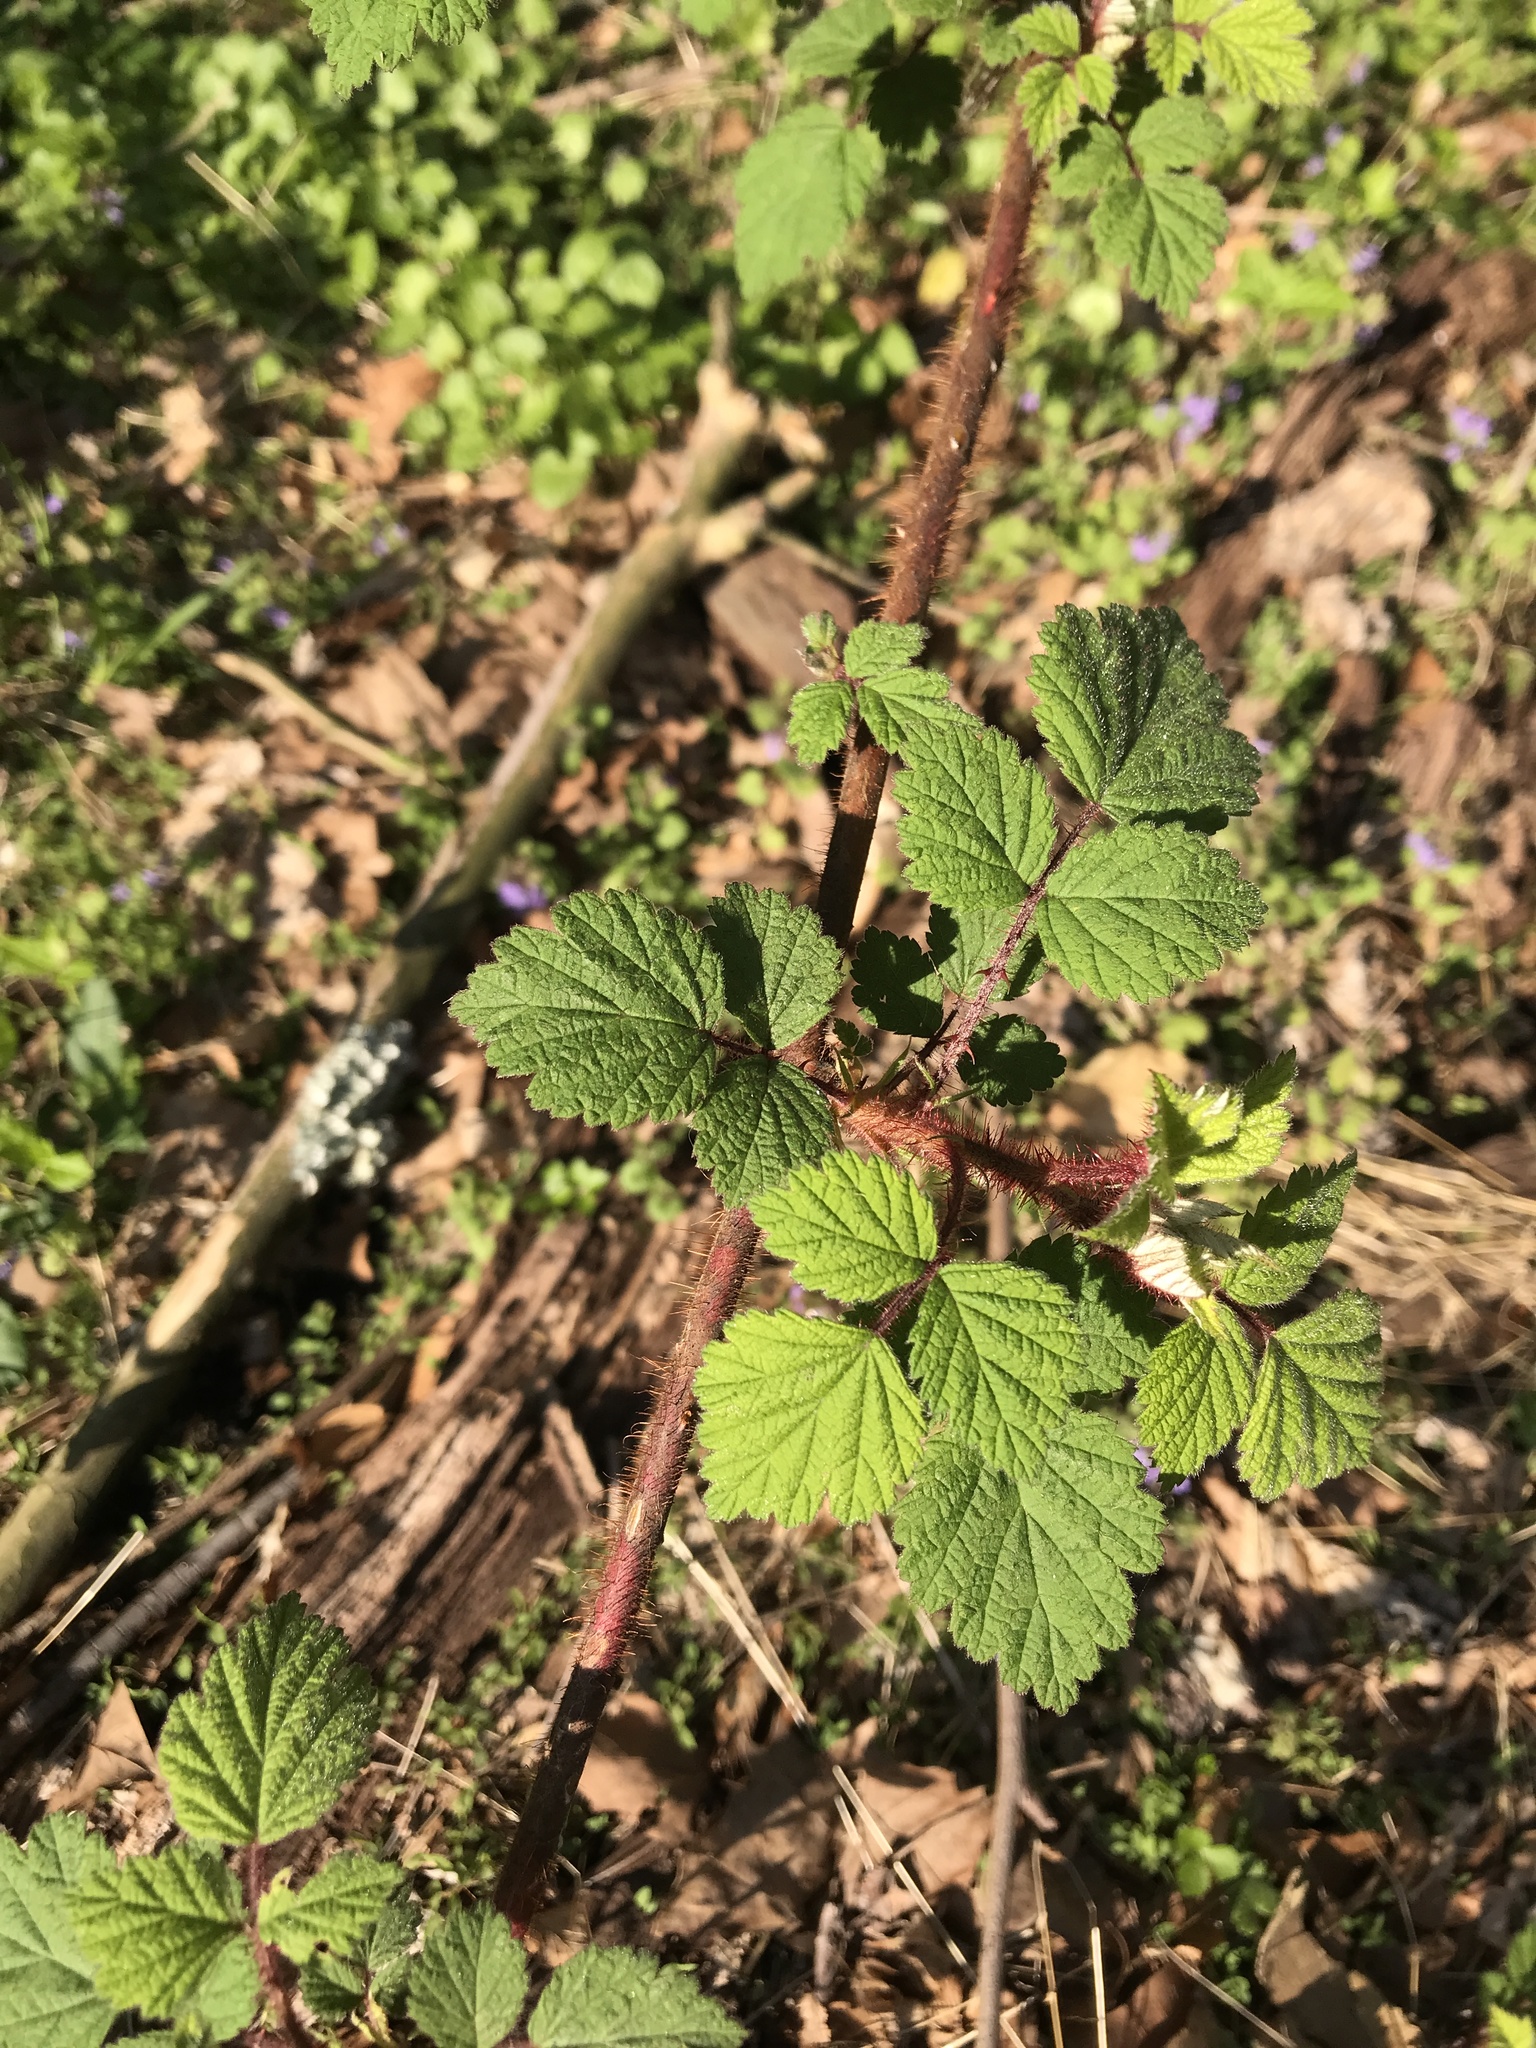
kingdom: Plantae
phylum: Tracheophyta
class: Magnoliopsida
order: Rosales
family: Rosaceae
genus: Rubus
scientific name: Rubus phoenicolasius
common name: Japanese wineberry
